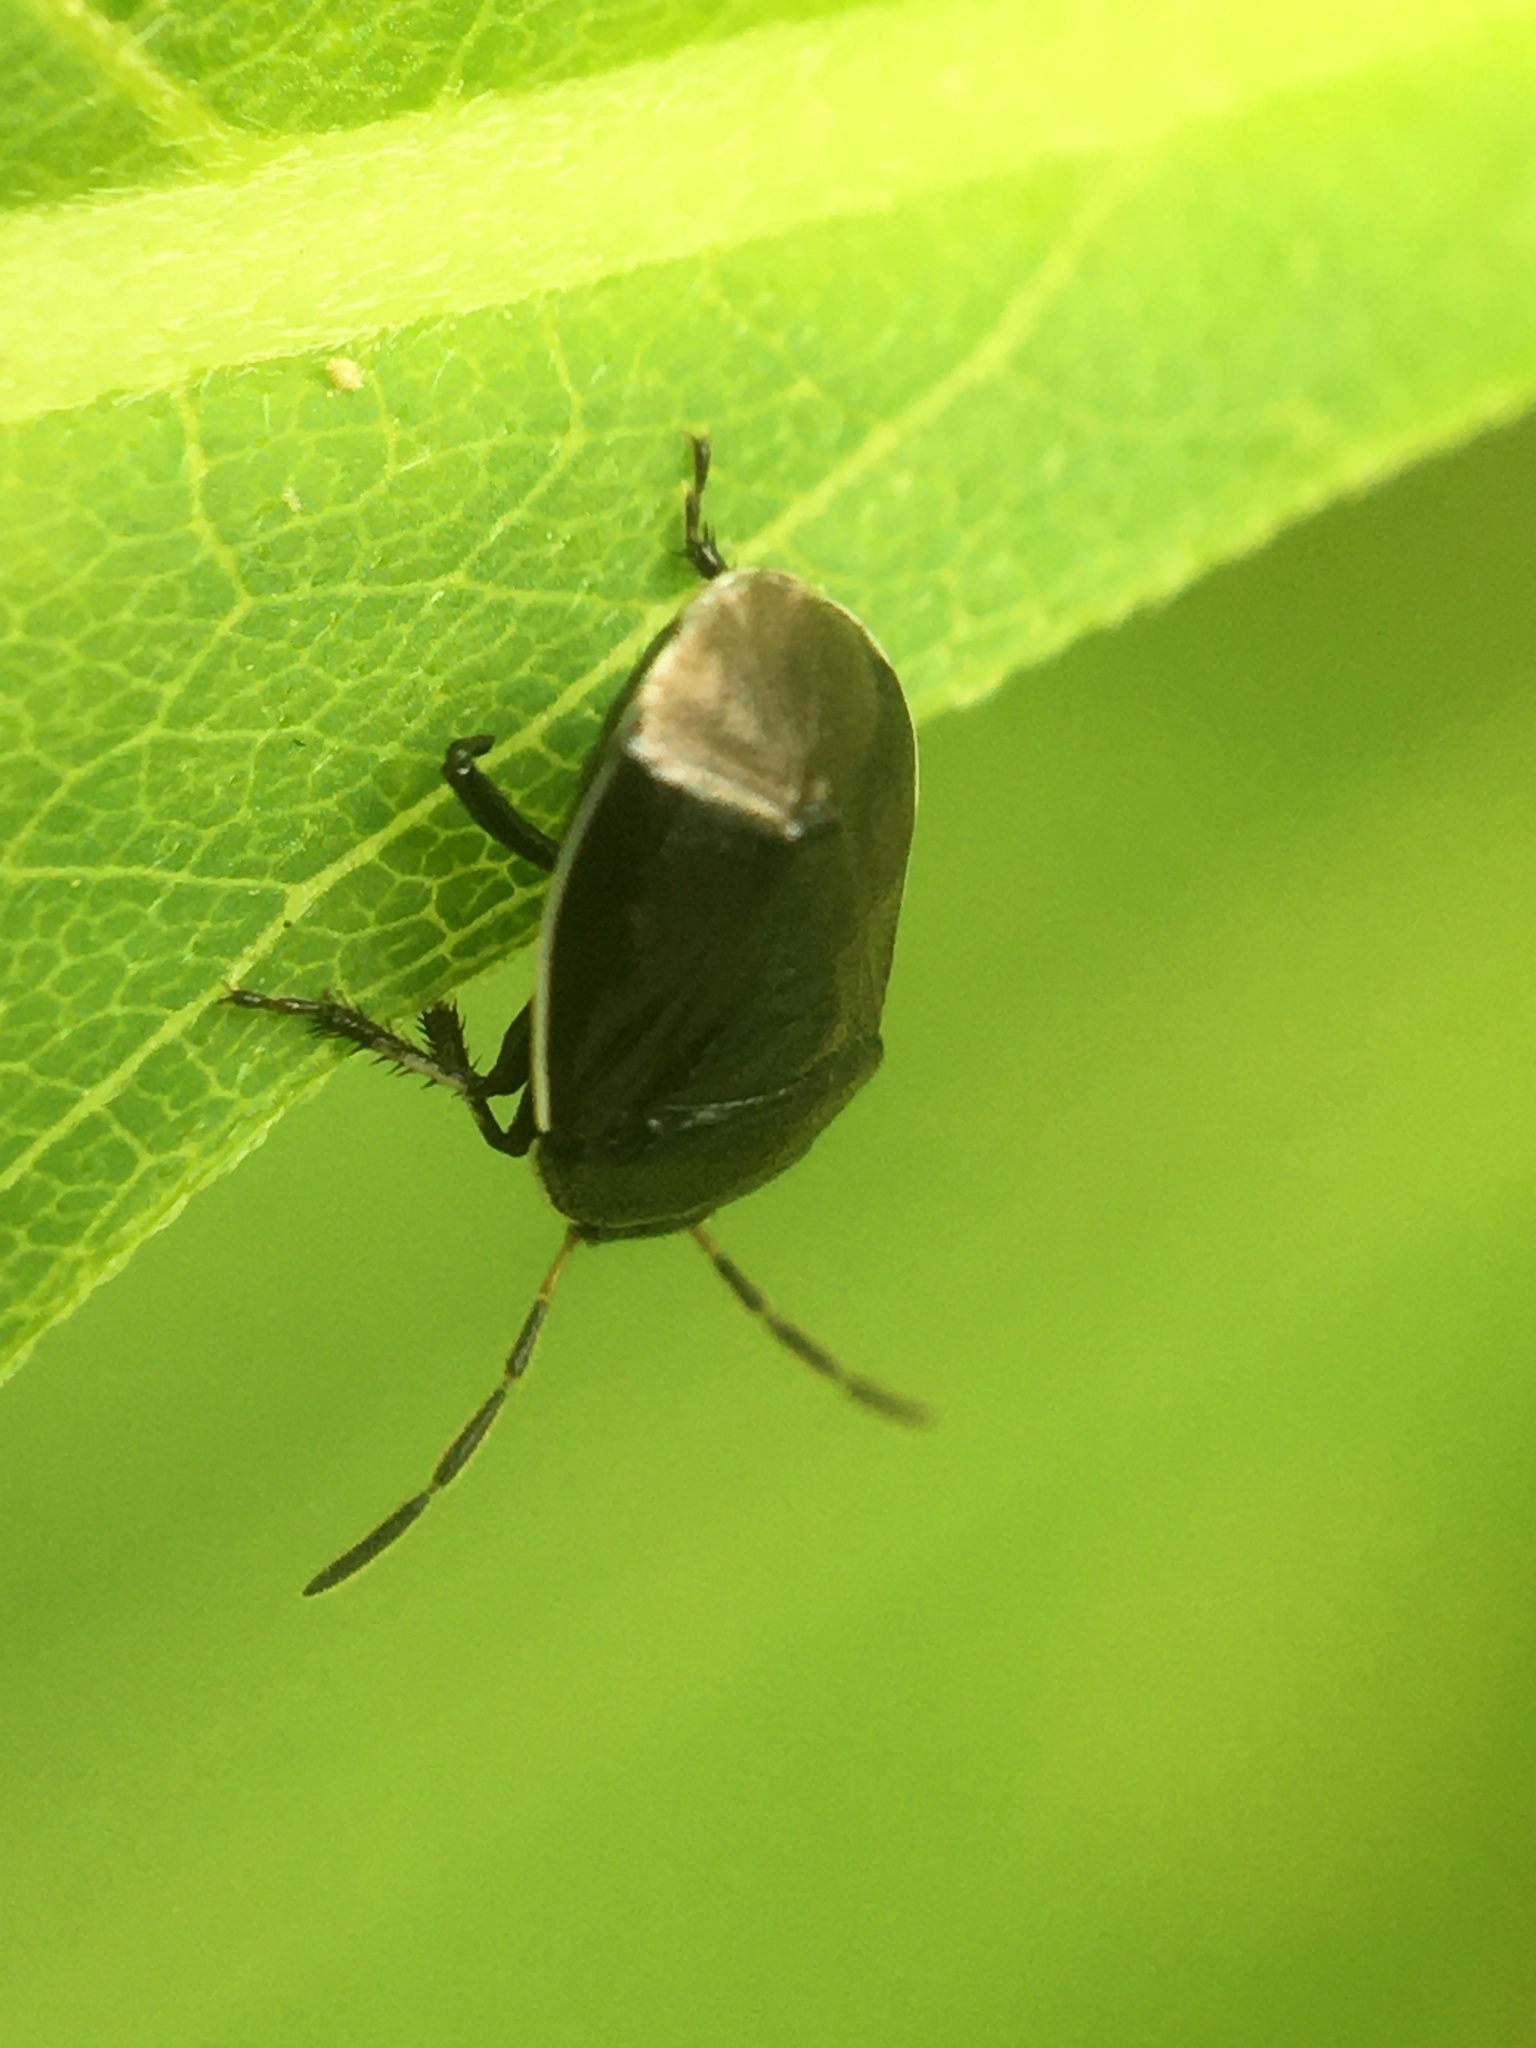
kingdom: Animalia
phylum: Arthropoda
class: Insecta
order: Hemiptera
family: Cydnidae
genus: Sehirus
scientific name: Sehirus cinctus
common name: White-margined burrower bug
